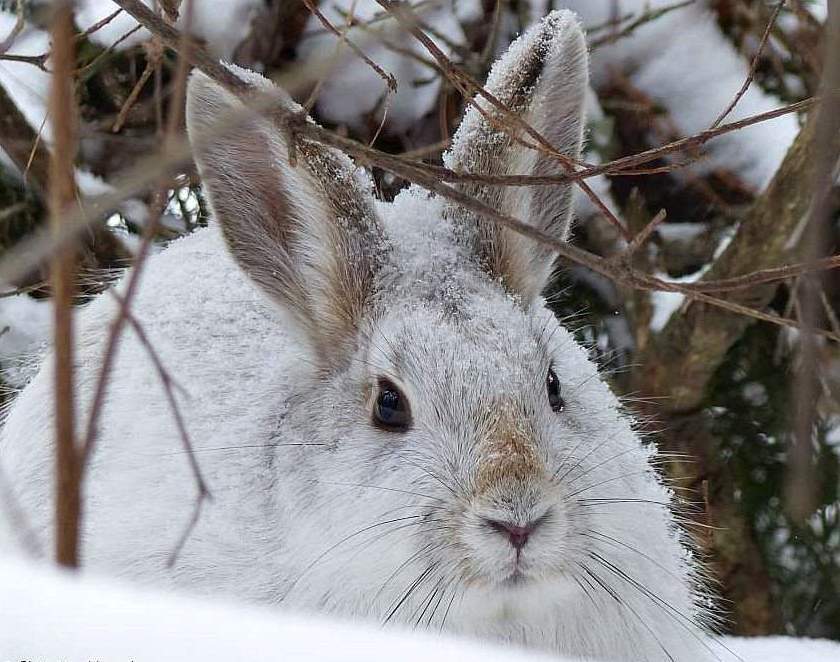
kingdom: Animalia
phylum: Chordata
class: Mammalia
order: Lagomorpha
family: Leporidae
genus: Lepus
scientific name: Lepus americanus
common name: Snowshoe hare
